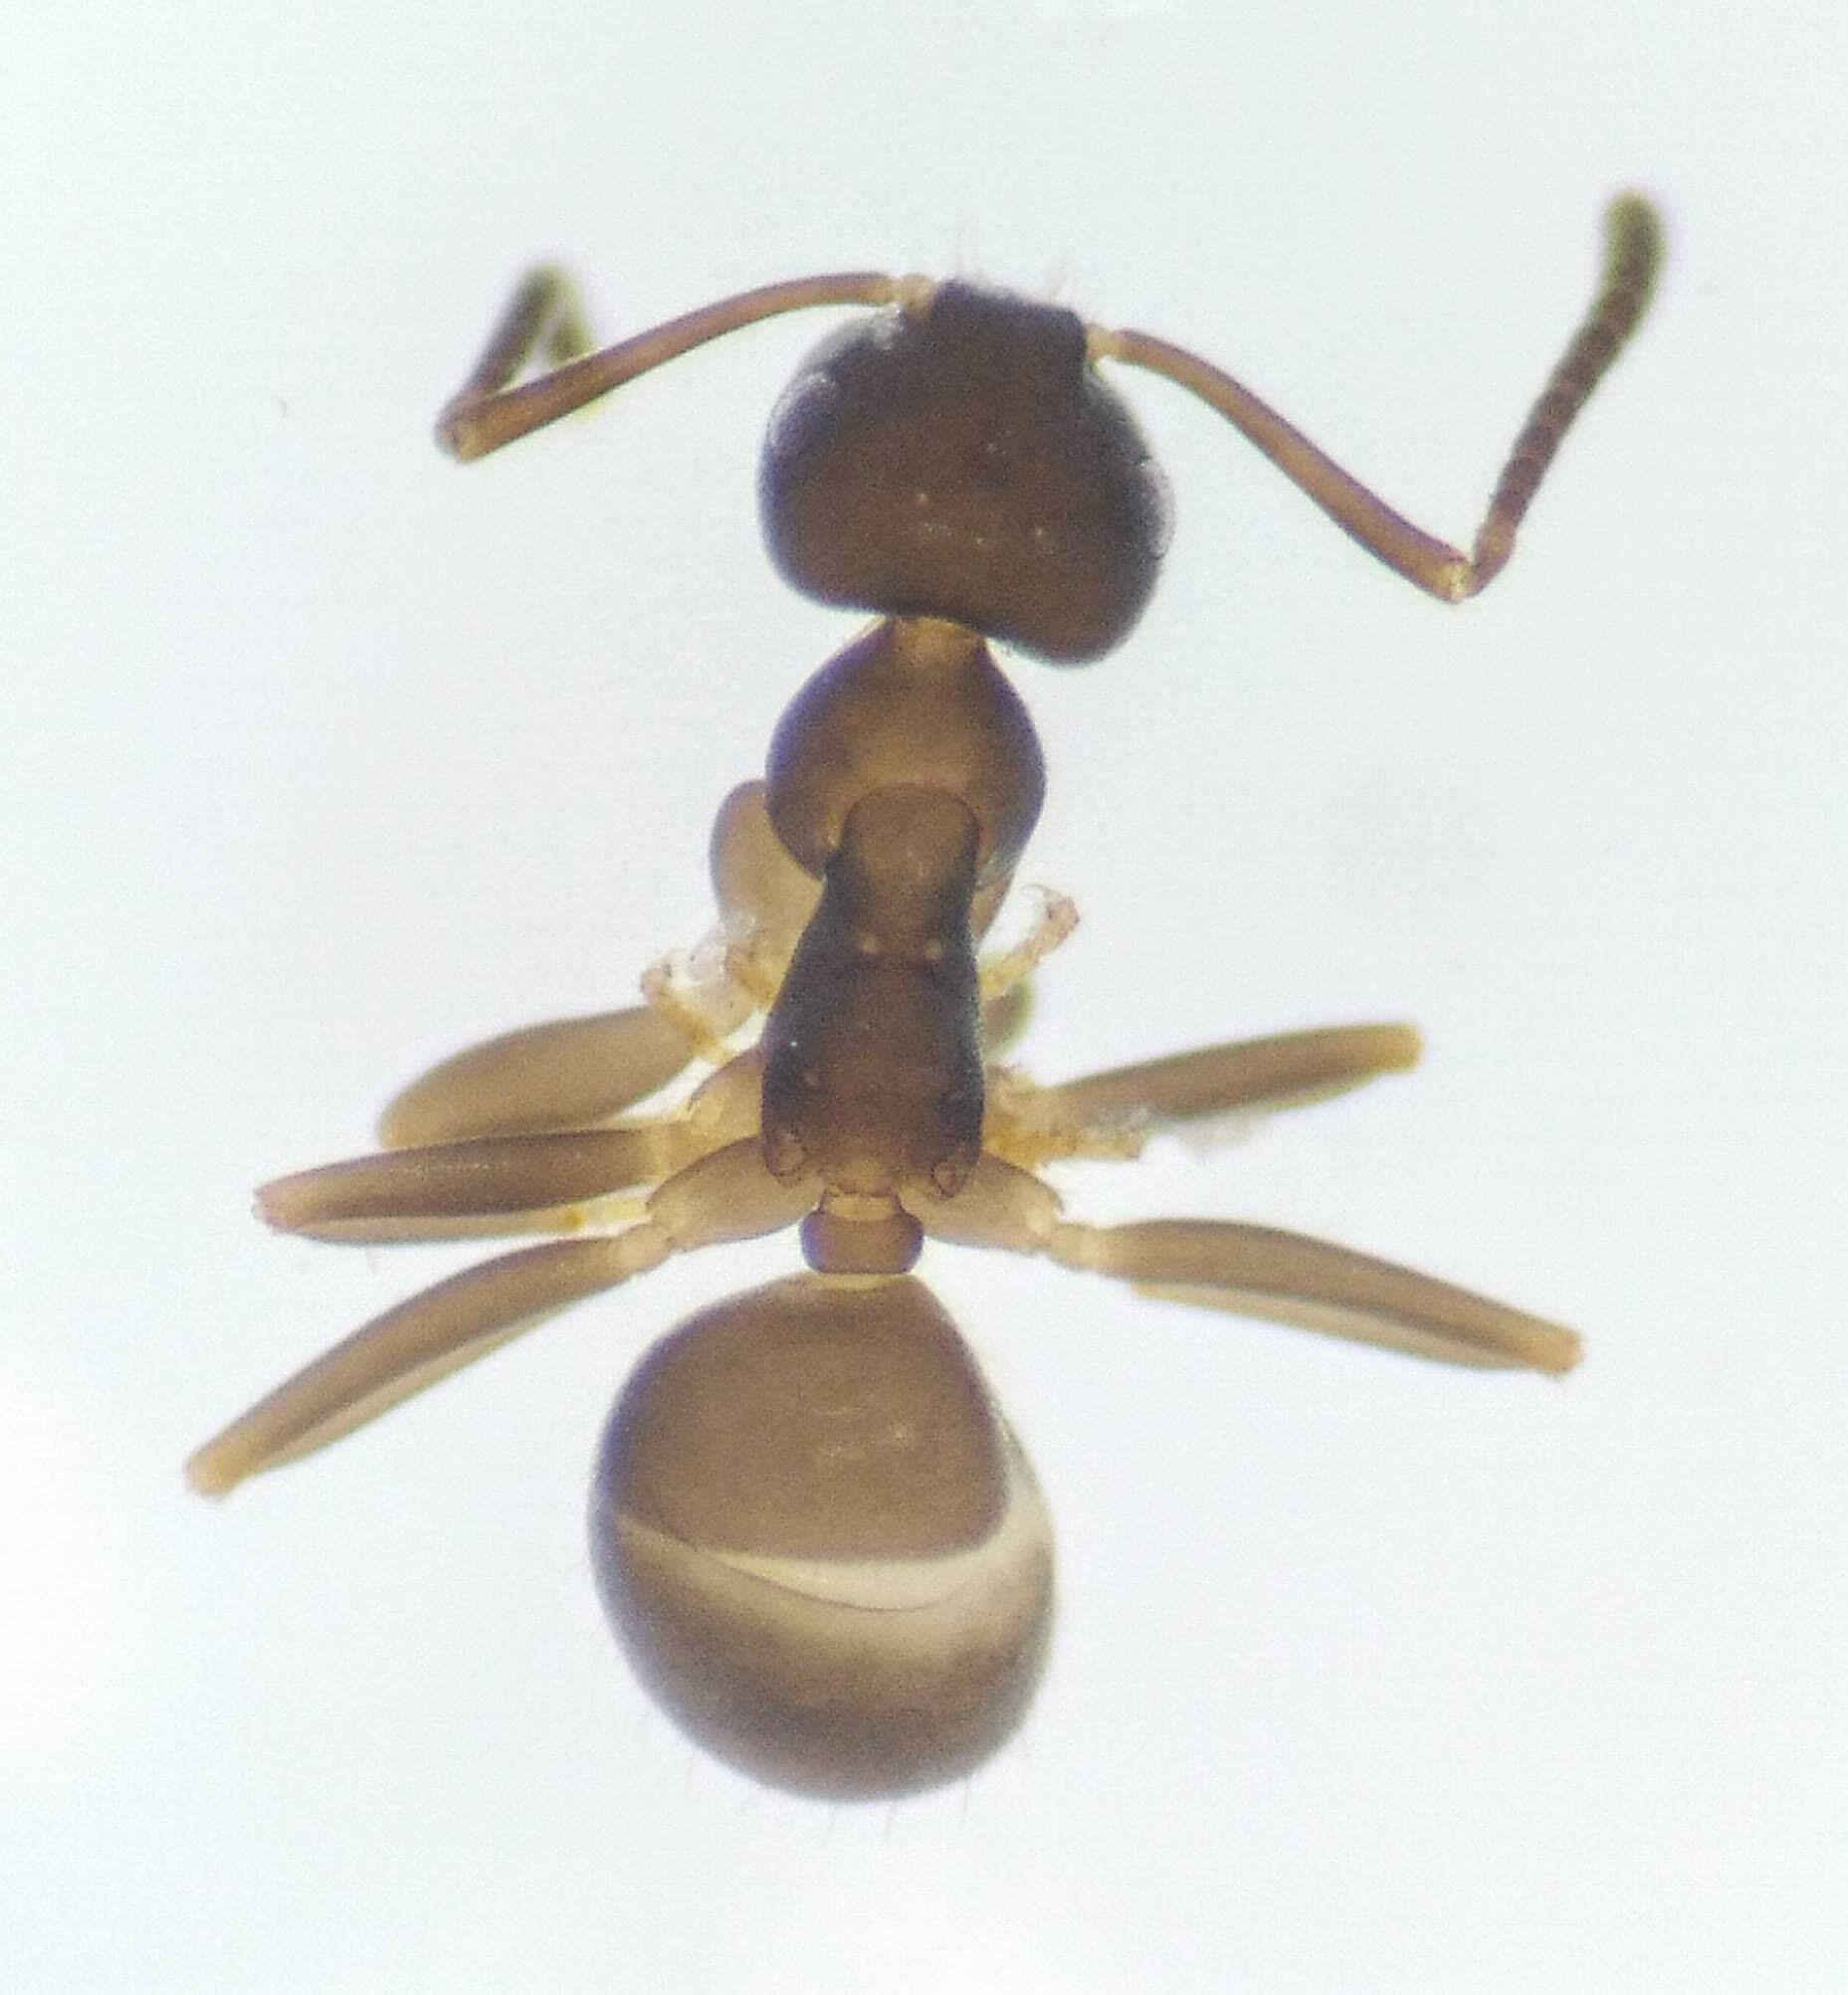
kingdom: Animalia
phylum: Arthropoda
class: Insecta
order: Hymenoptera
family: Formicidae
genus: Lasius
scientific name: Lasius americanus
